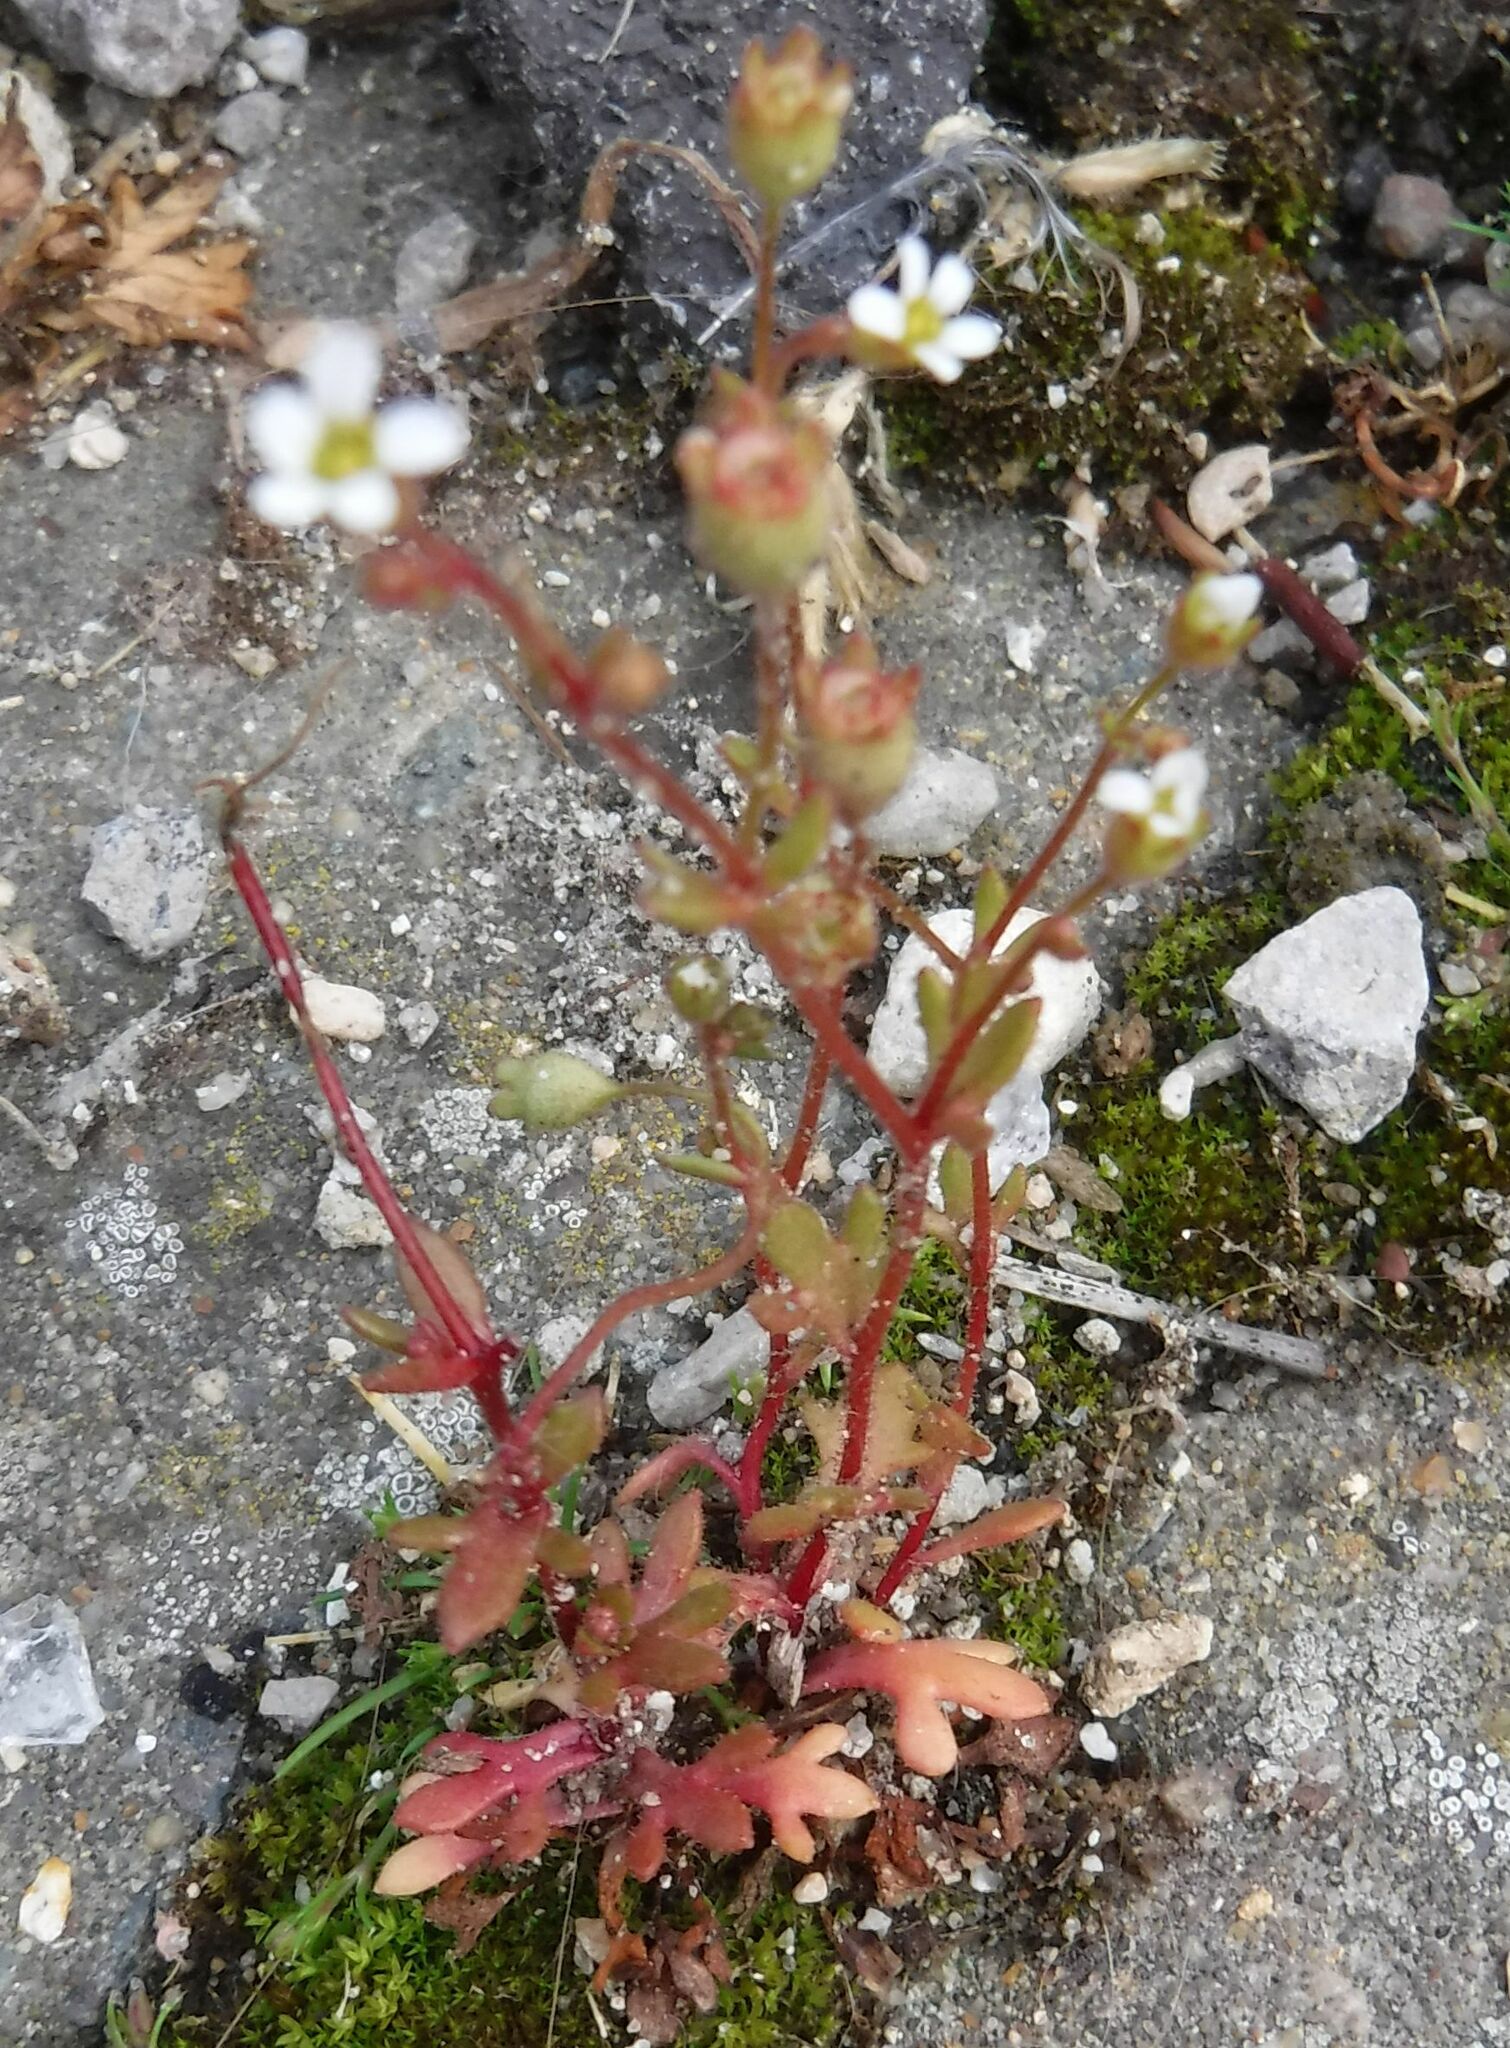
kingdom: Plantae
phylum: Tracheophyta
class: Magnoliopsida
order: Saxifragales
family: Saxifragaceae
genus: Saxifraga
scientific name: Saxifraga tridactylites
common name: Rue-leaved saxifrage
